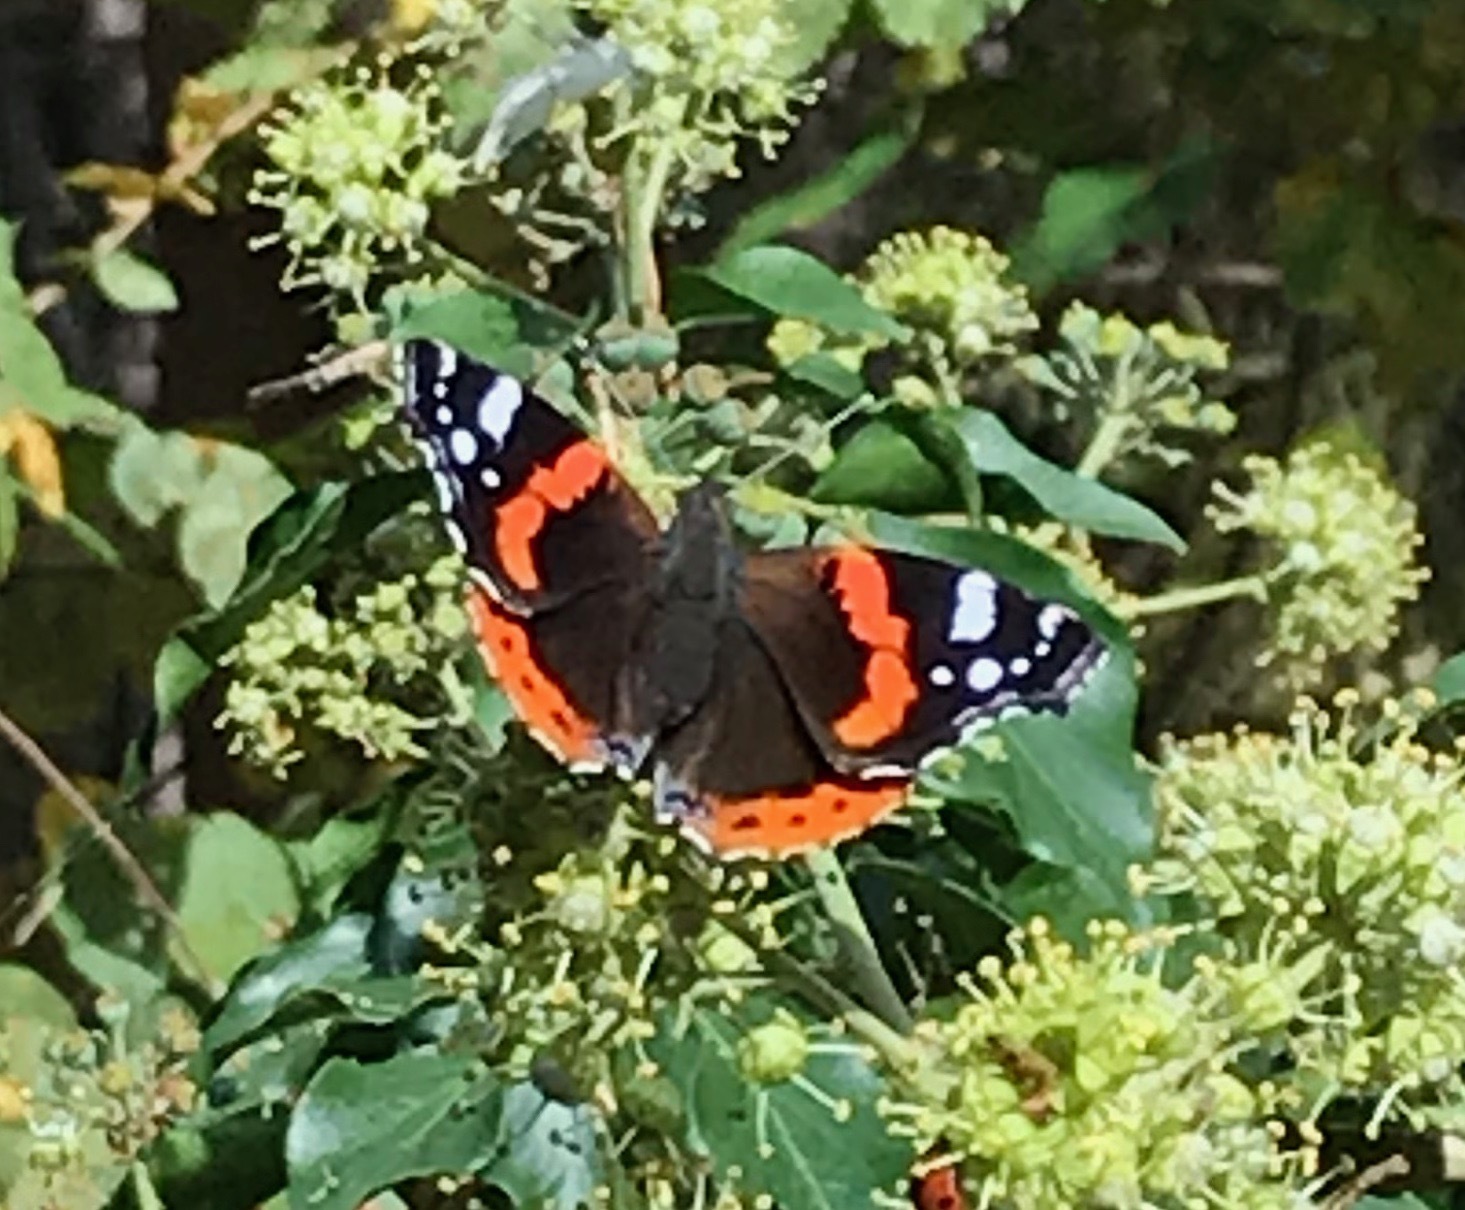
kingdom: Animalia
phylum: Arthropoda
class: Insecta
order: Lepidoptera
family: Nymphalidae
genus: Vanessa
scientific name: Vanessa atalanta
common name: Red admiral
